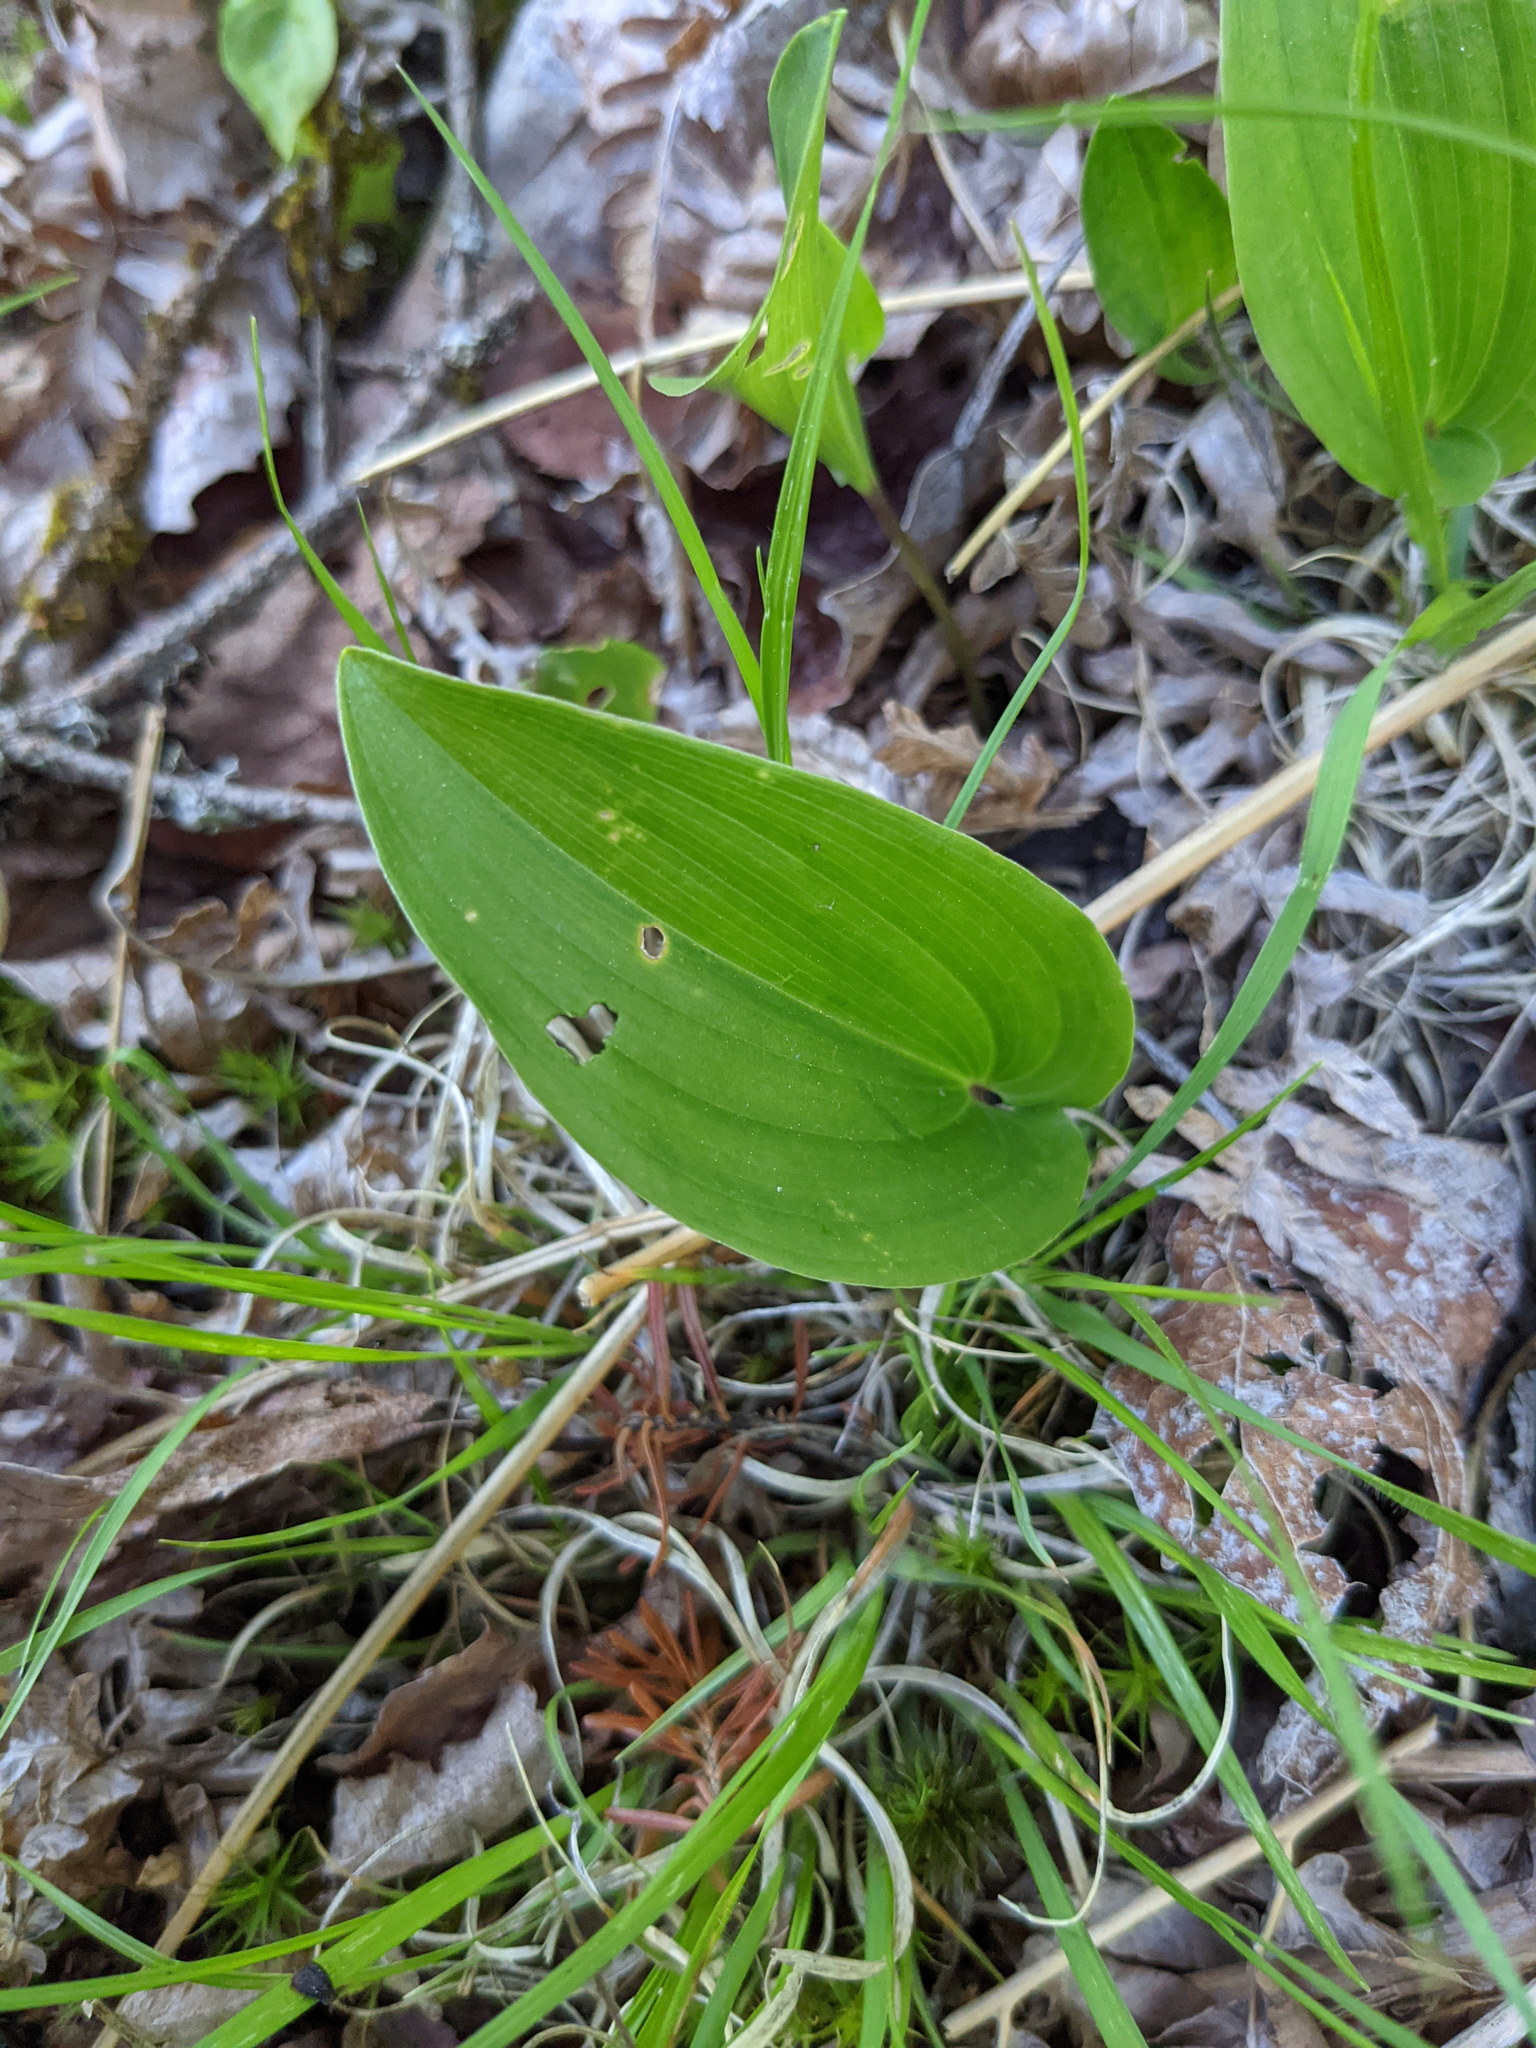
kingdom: Plantae
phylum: Tracheophyta
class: Liliopsida
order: Asparagales
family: Asparagaceae
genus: Maianthemum
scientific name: Maianthemum canadense
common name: False lily-of-the-valley
